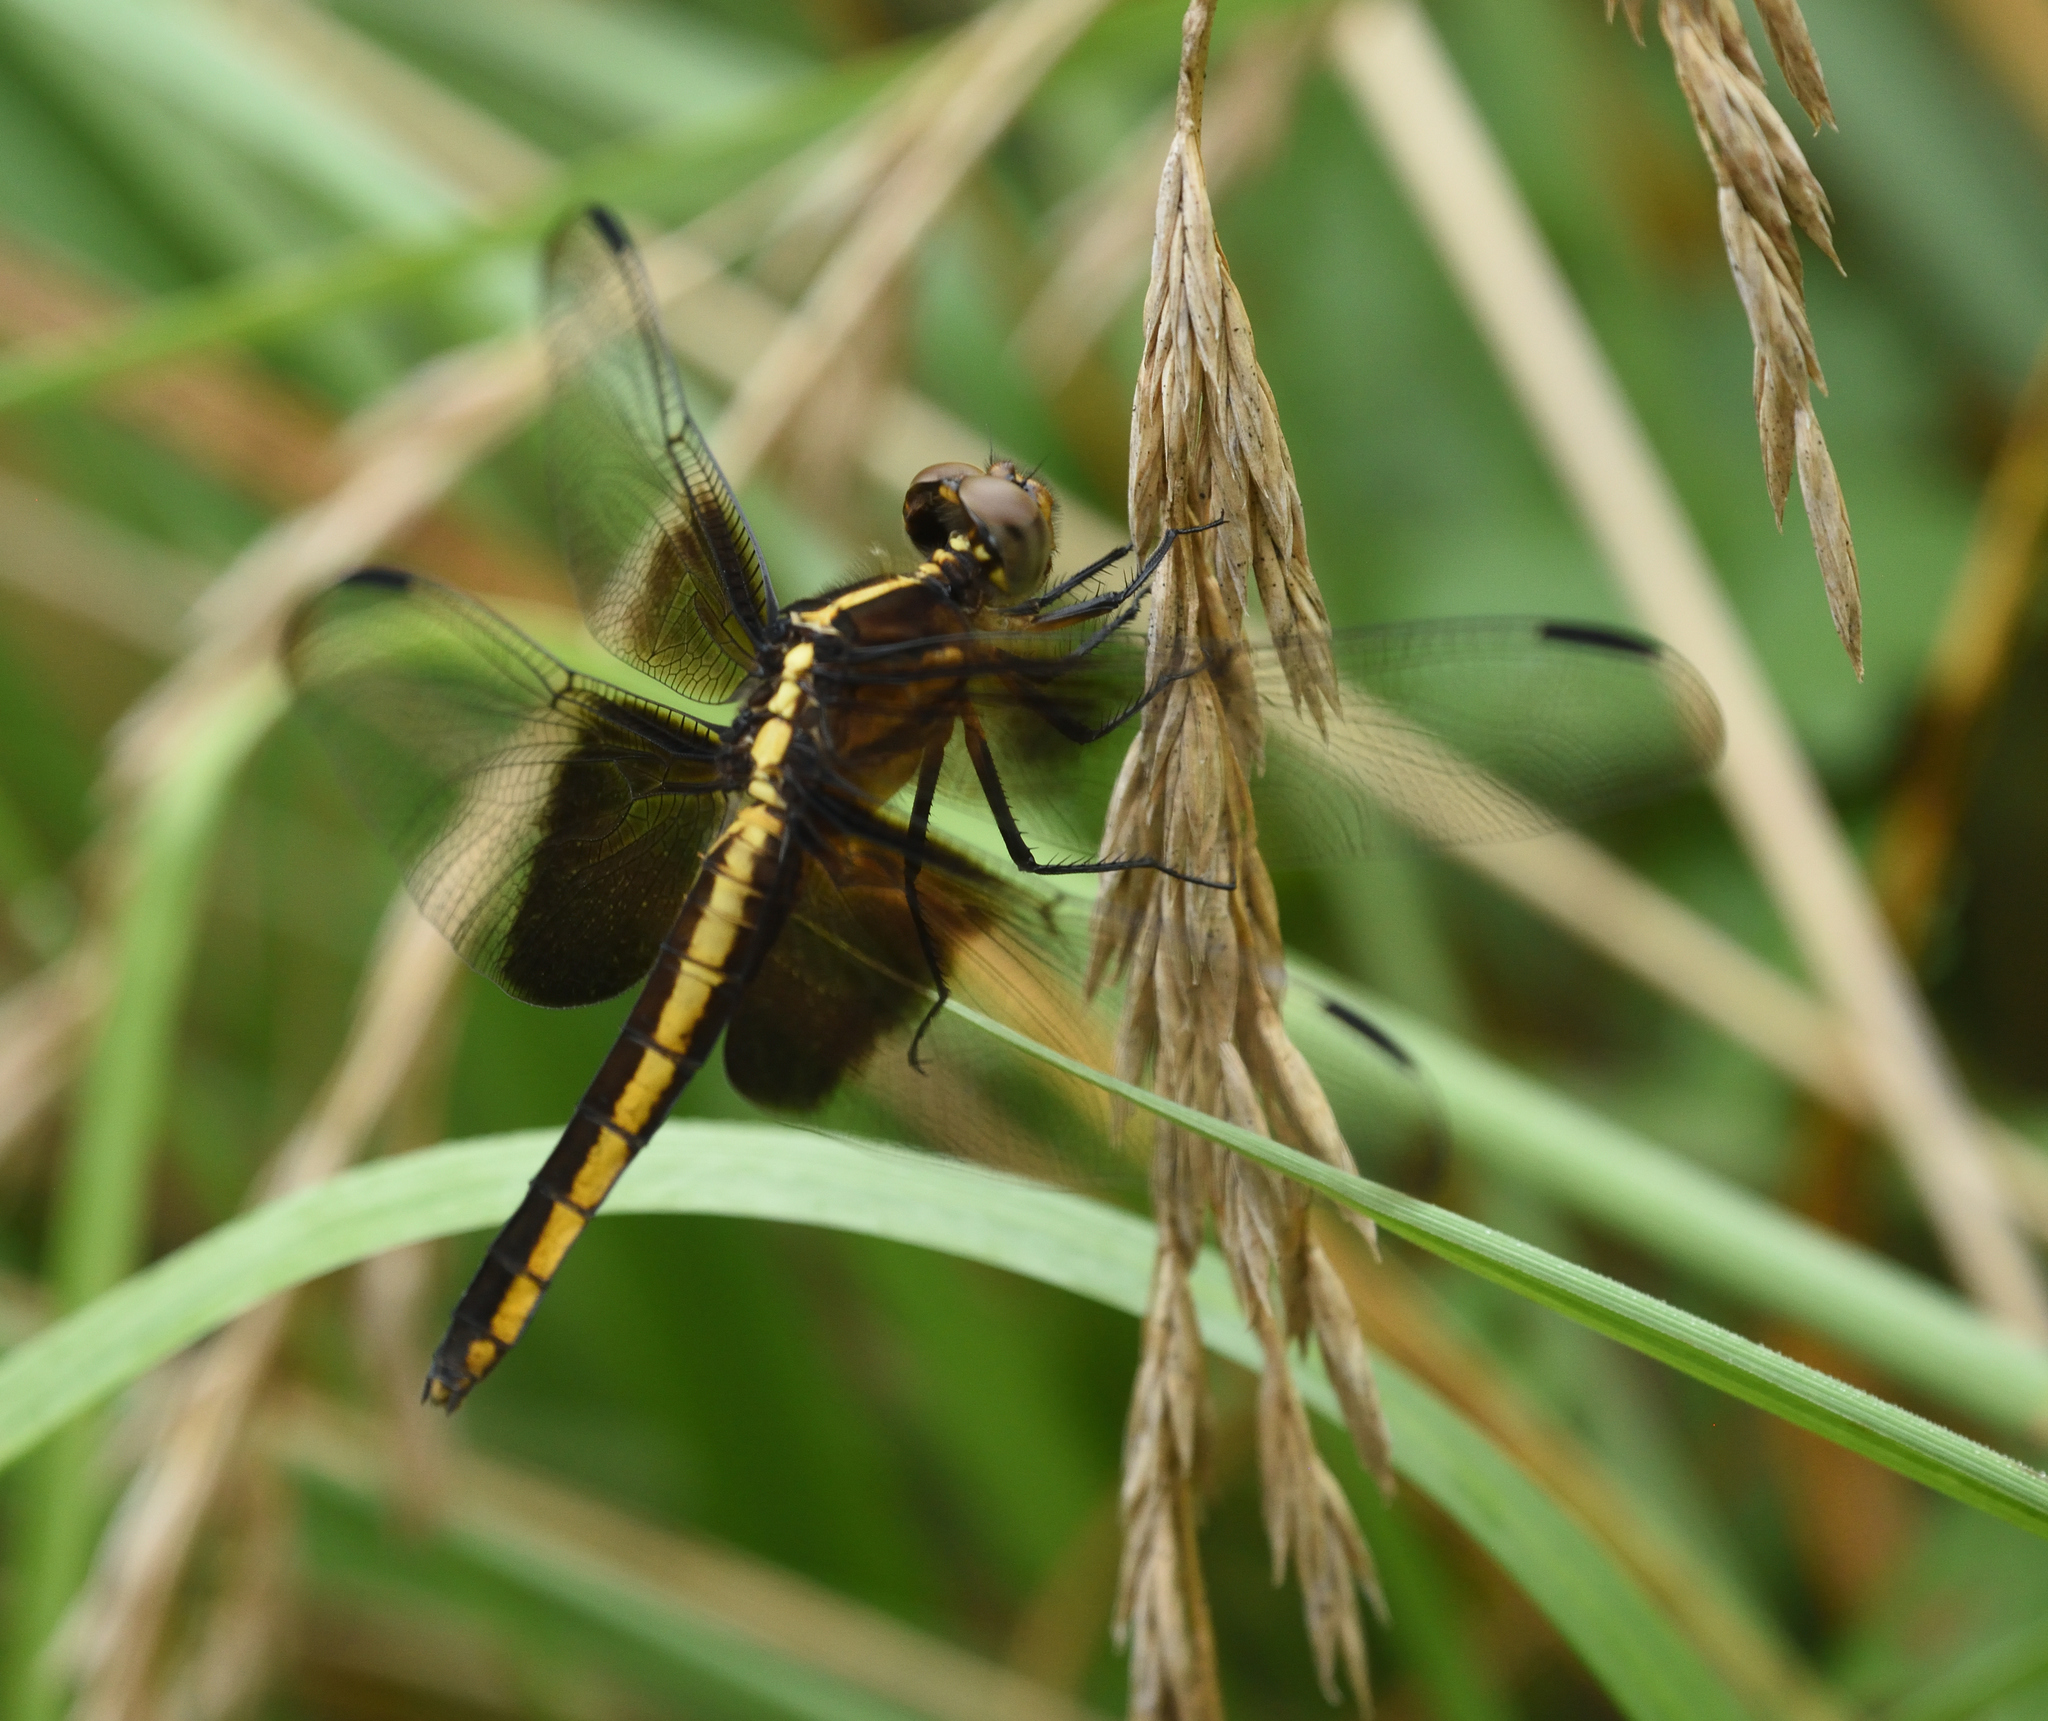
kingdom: Animalia
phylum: Arthropoda
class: Insecta
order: Odonata
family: Libellulidae
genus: Libellula
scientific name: Libellula luctuosa
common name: Widow skimmer
